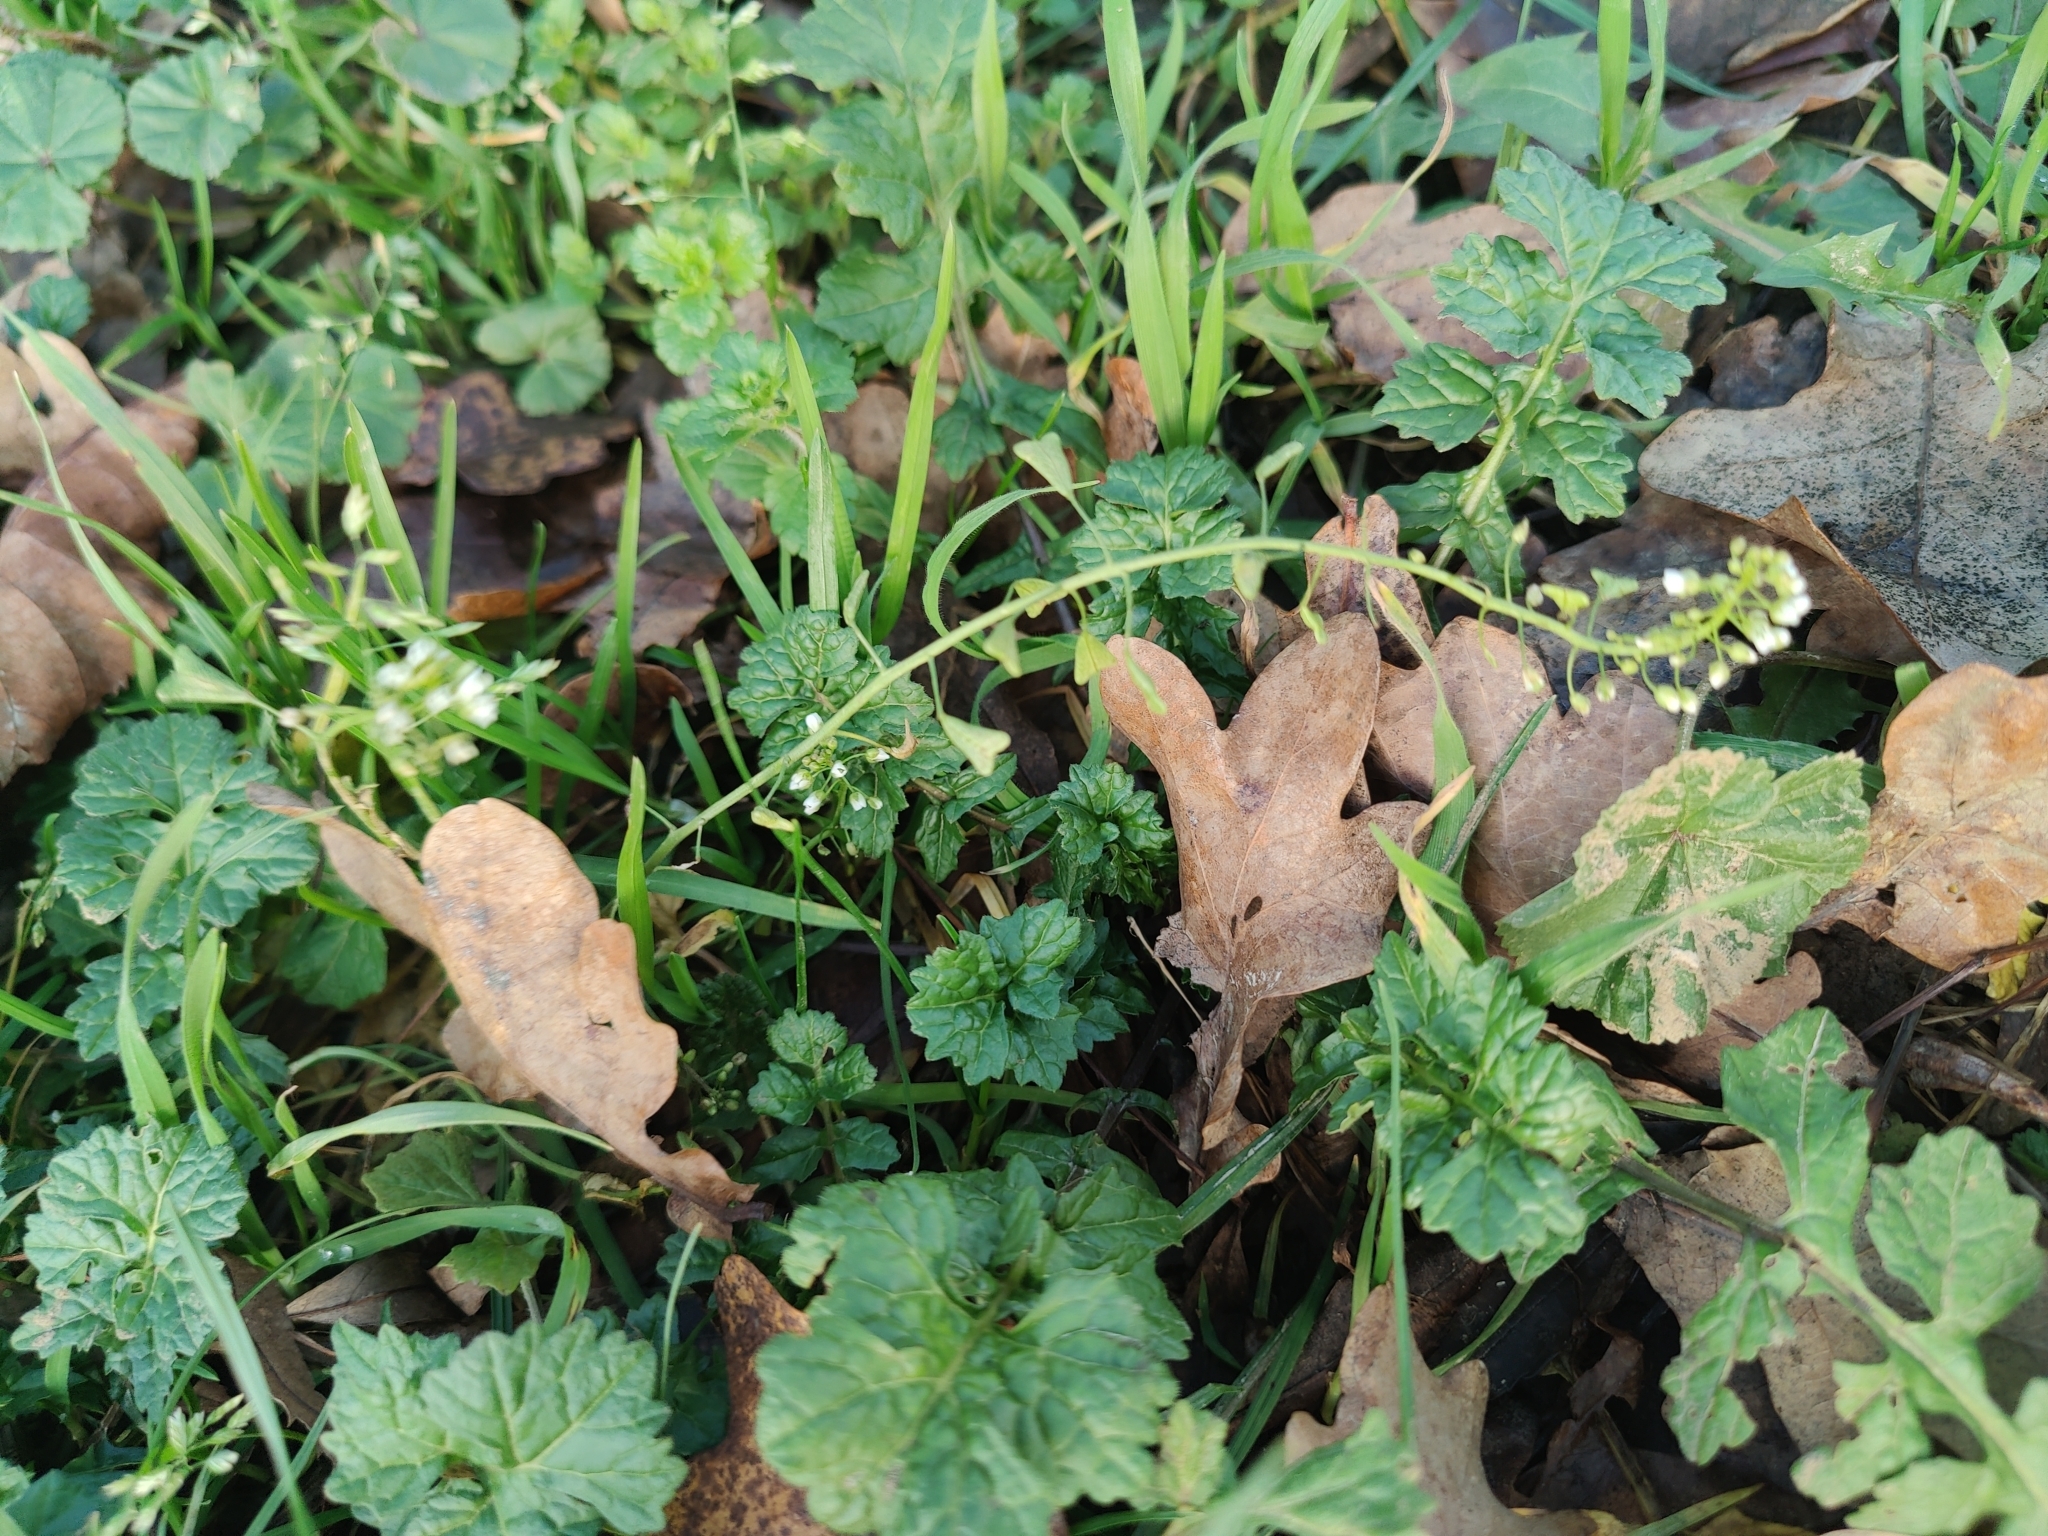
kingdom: Plantae
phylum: Tracheophyta
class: Magnoliopsida
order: Brassicales
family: Brassicaceae
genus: Capsella
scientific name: Capsella bursa-pastoris
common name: Shepherd's purse
